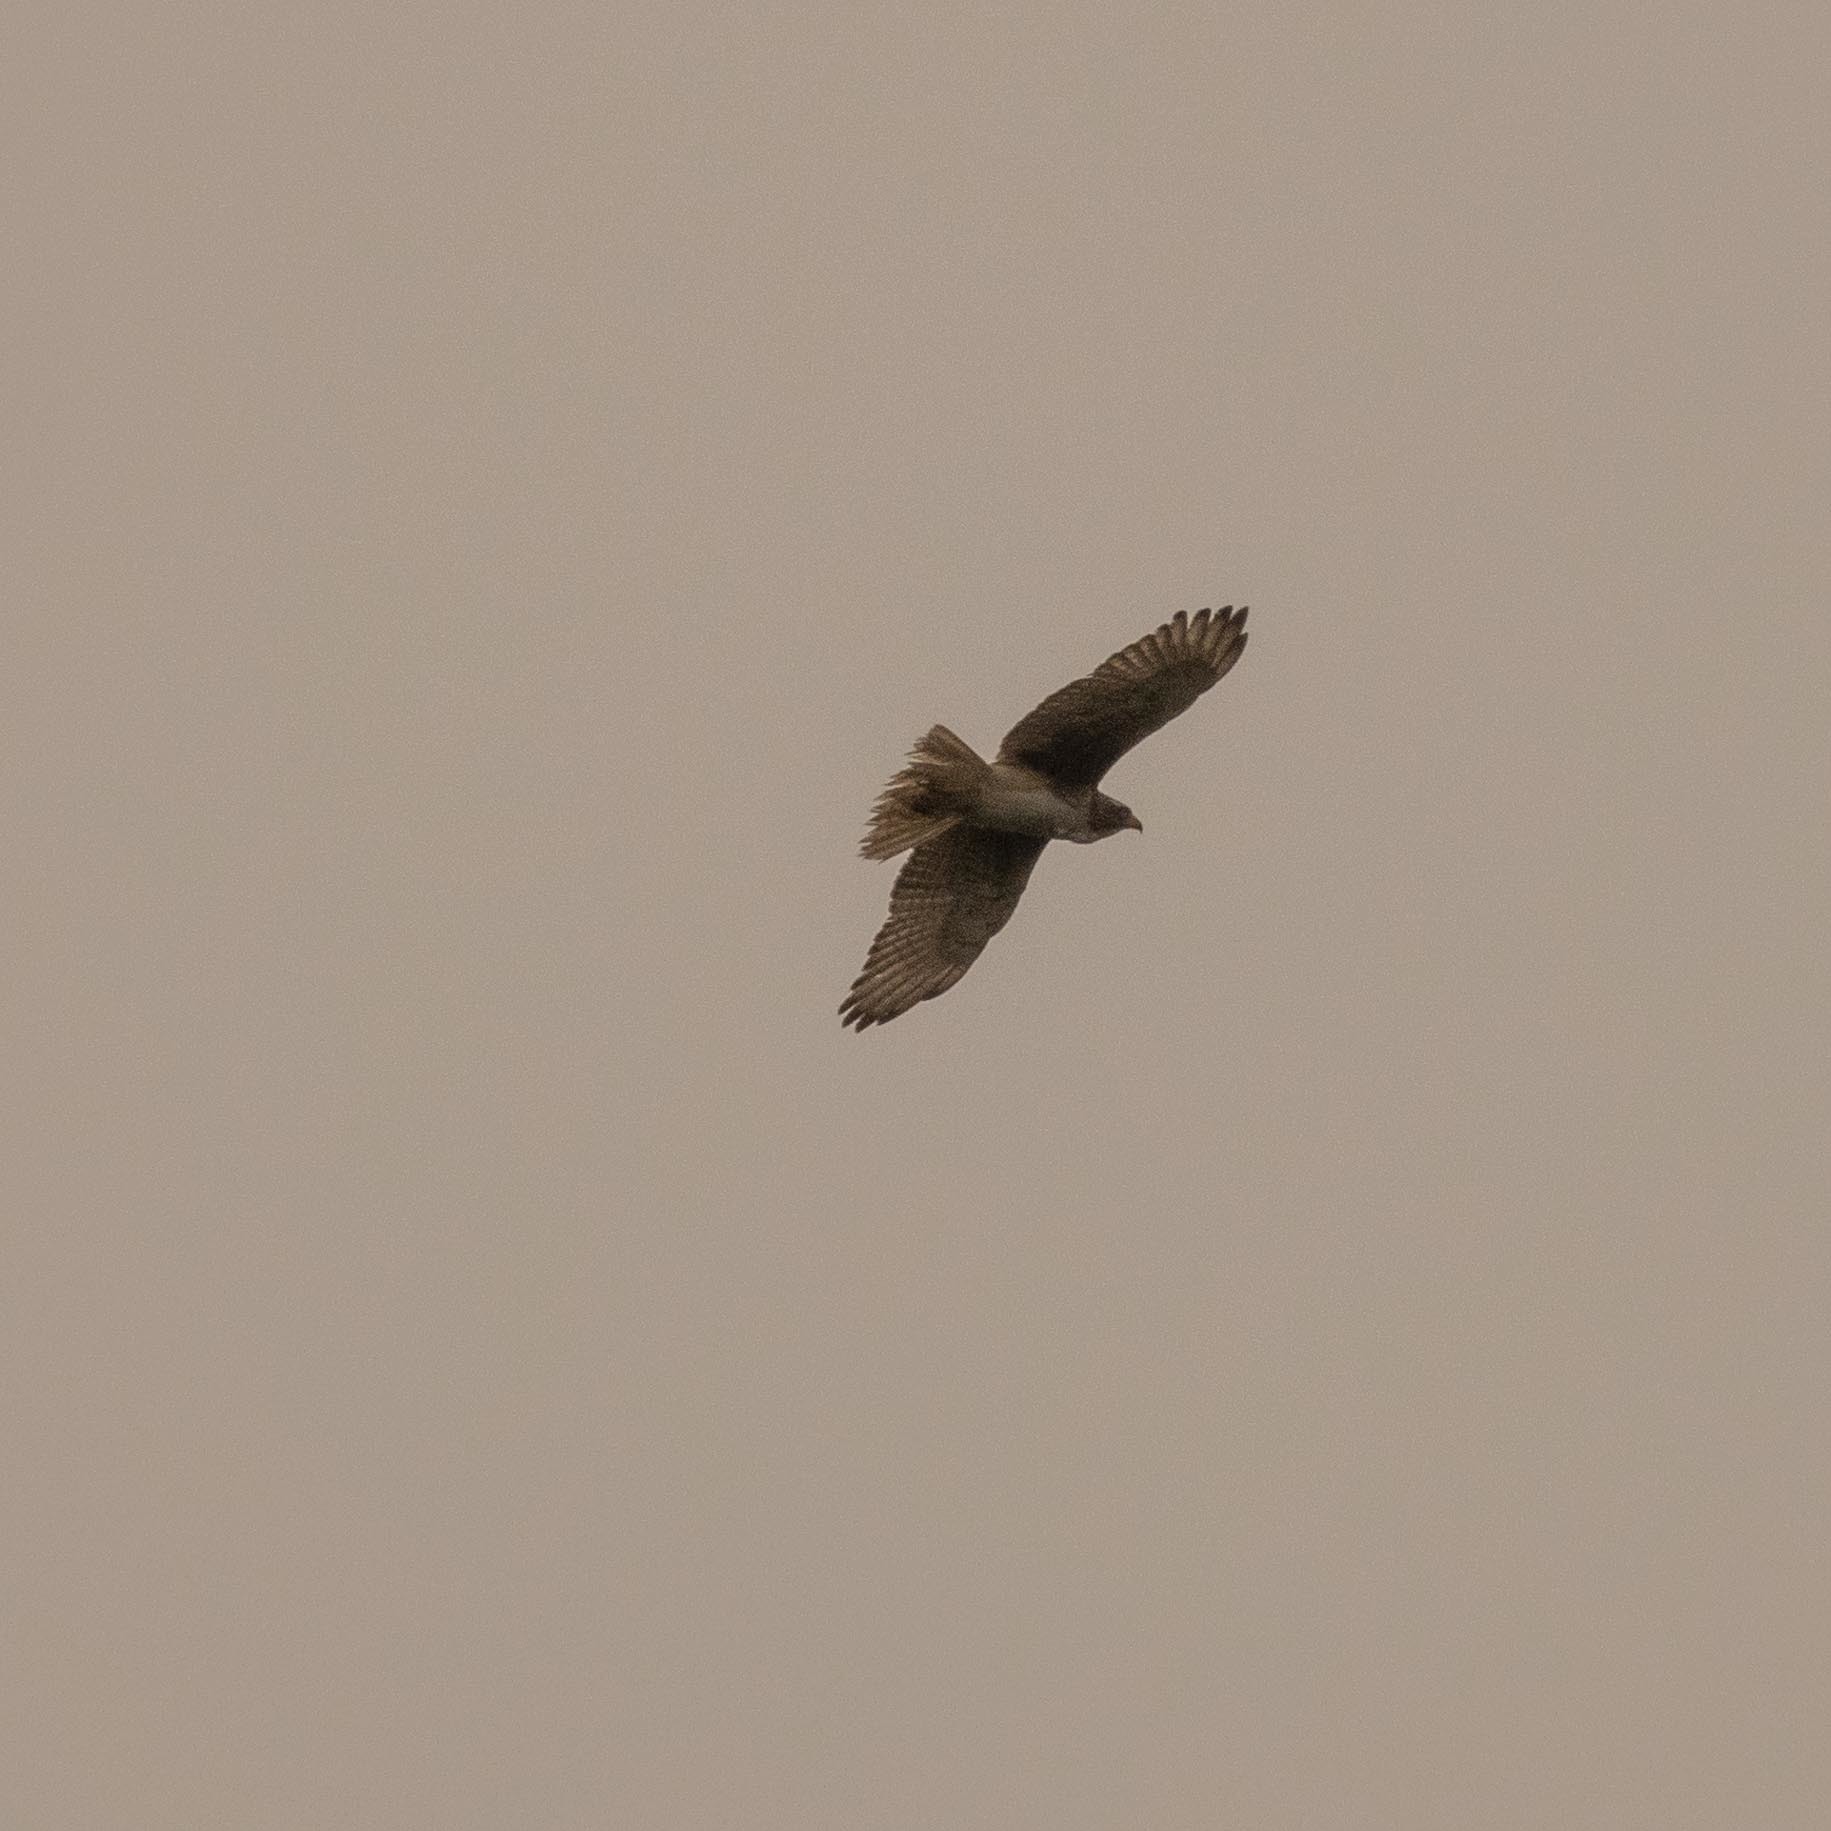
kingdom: Animalia
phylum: Chordata
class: Aves
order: Accipitriformes
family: Accipitridae
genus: Butastur
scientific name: Butastur teesa
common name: White-eyed buzzard
